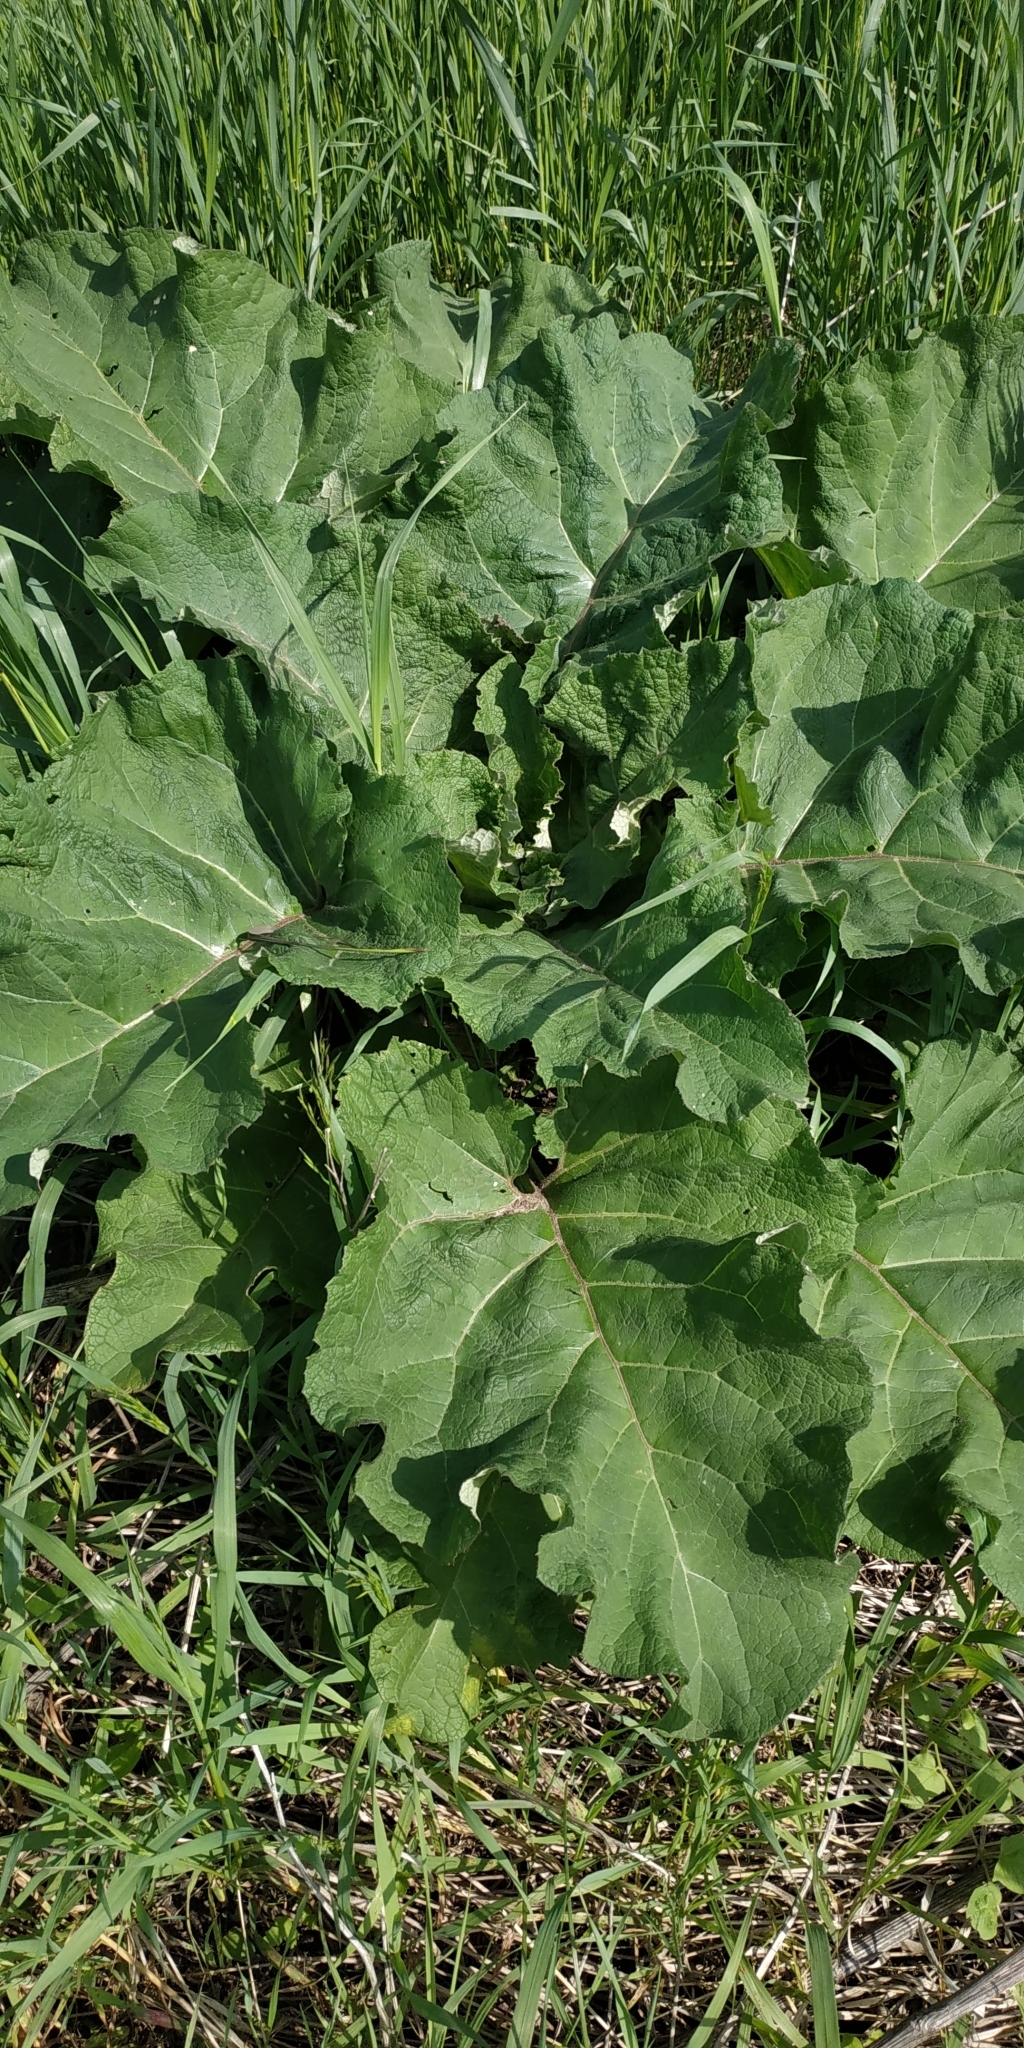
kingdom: Plantae
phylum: Tracheophyta
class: Magnoliopsida
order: Asterales
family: Asteraceae
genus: Arctium
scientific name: Arctium tomentosum
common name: Woolly burdock
